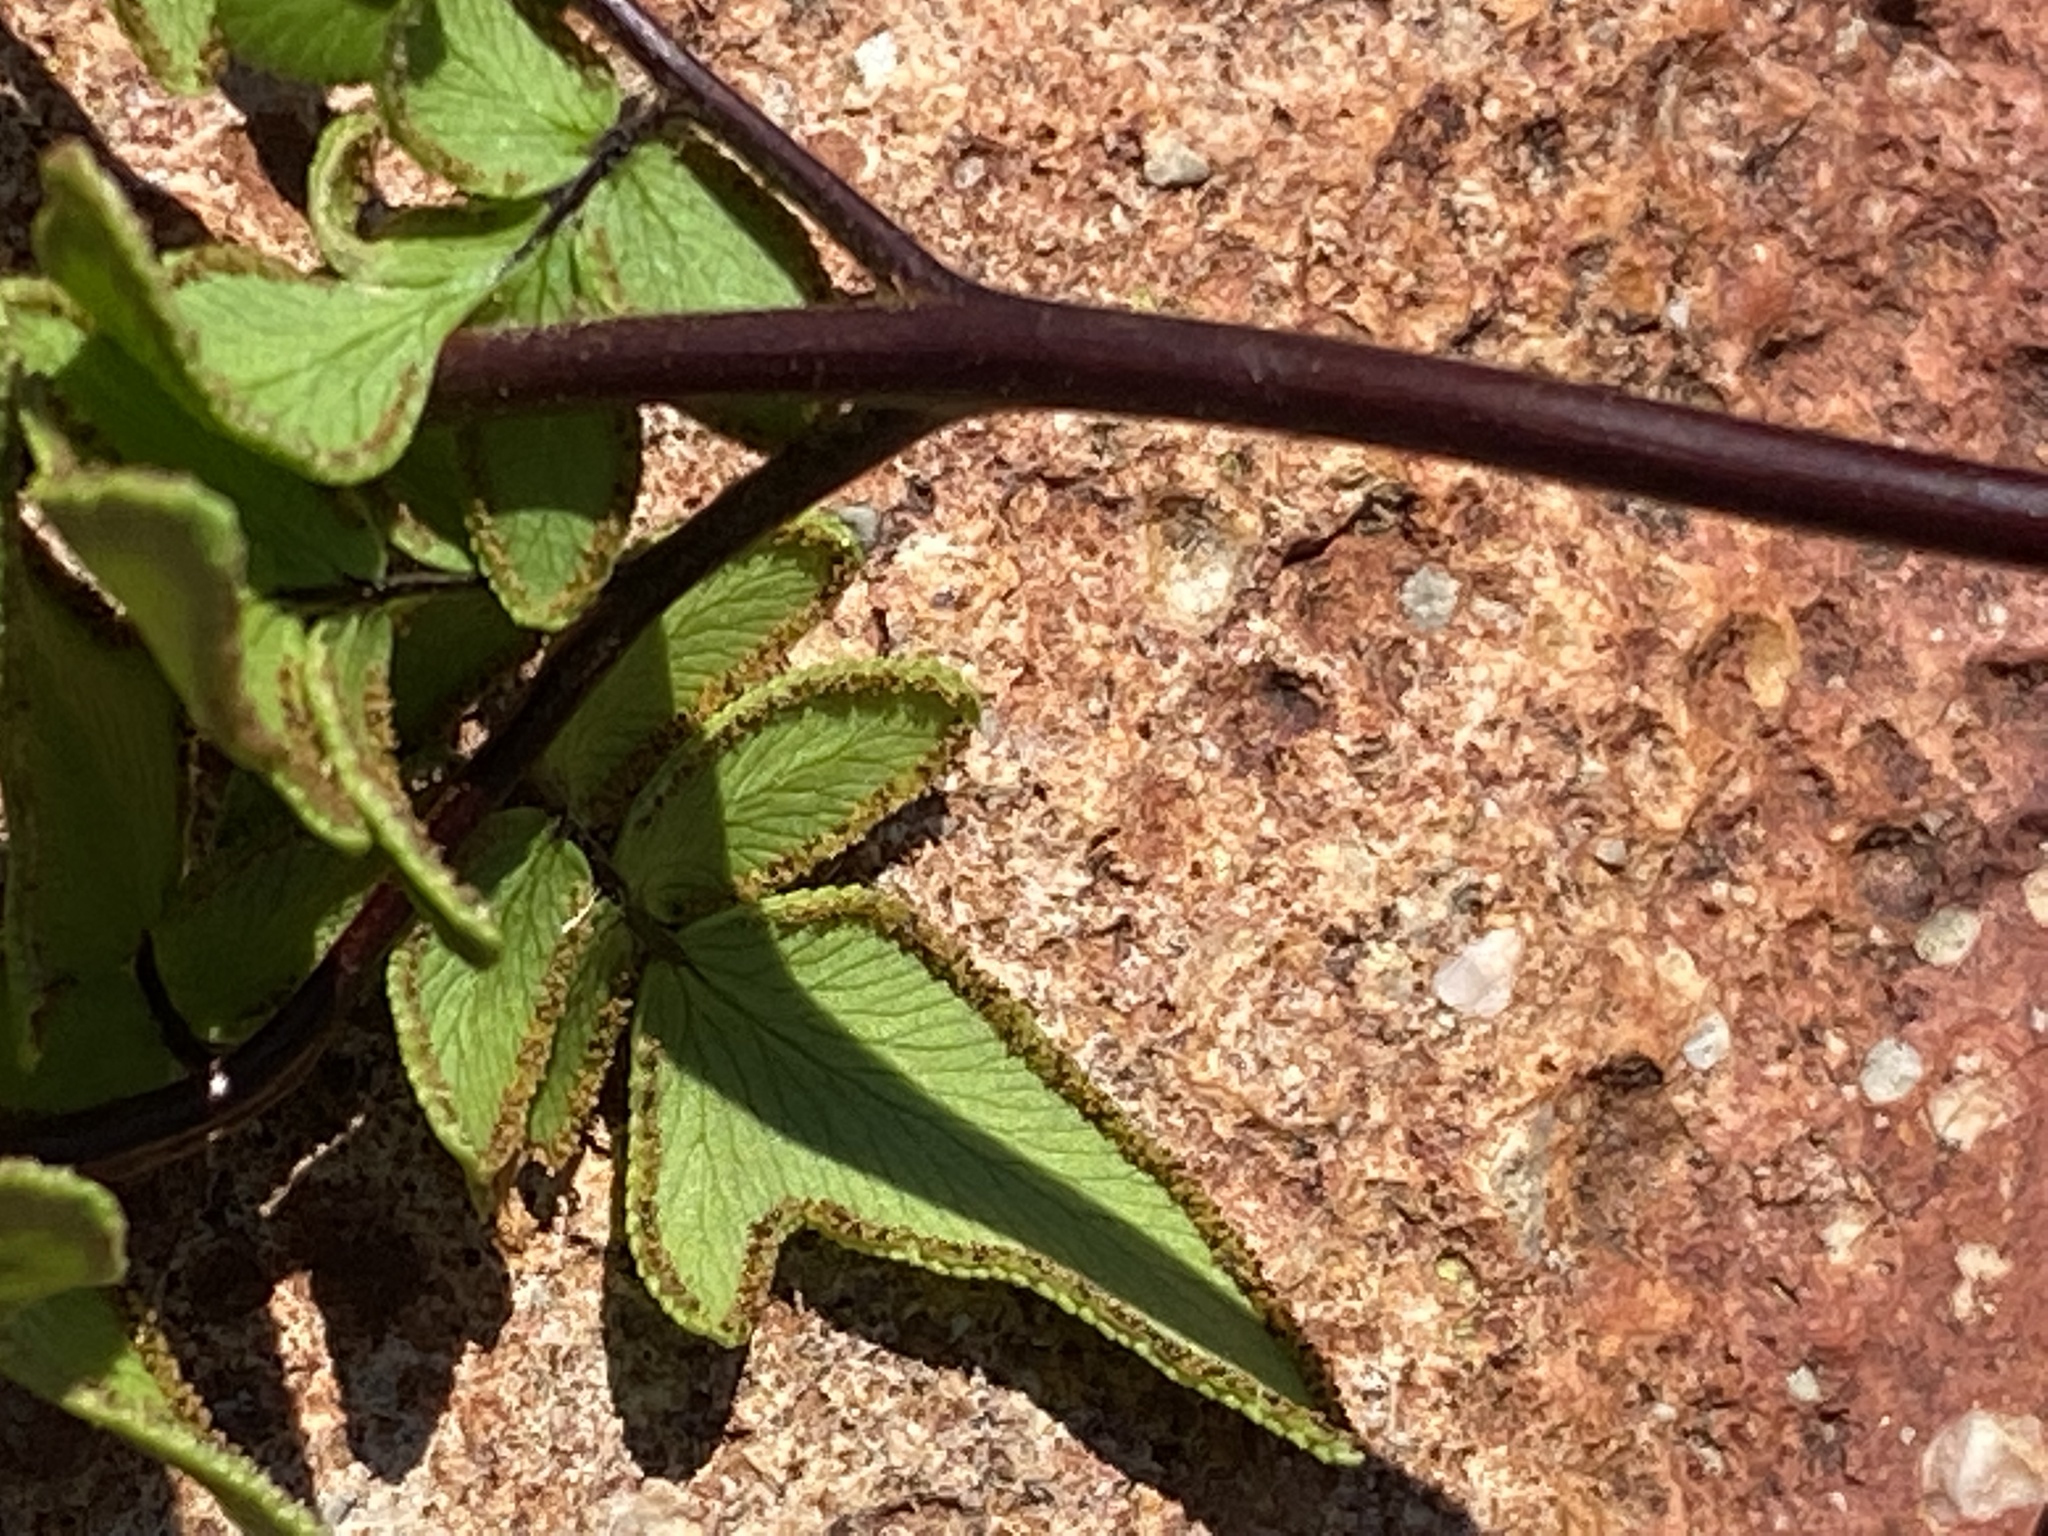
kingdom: Plantae
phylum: Tracheophyta
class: Polypodiopsida
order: Polypodiales
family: Pteridaceae
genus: Cheilanthes
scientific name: Cheilanthes viridis
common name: Green cliffbrake
